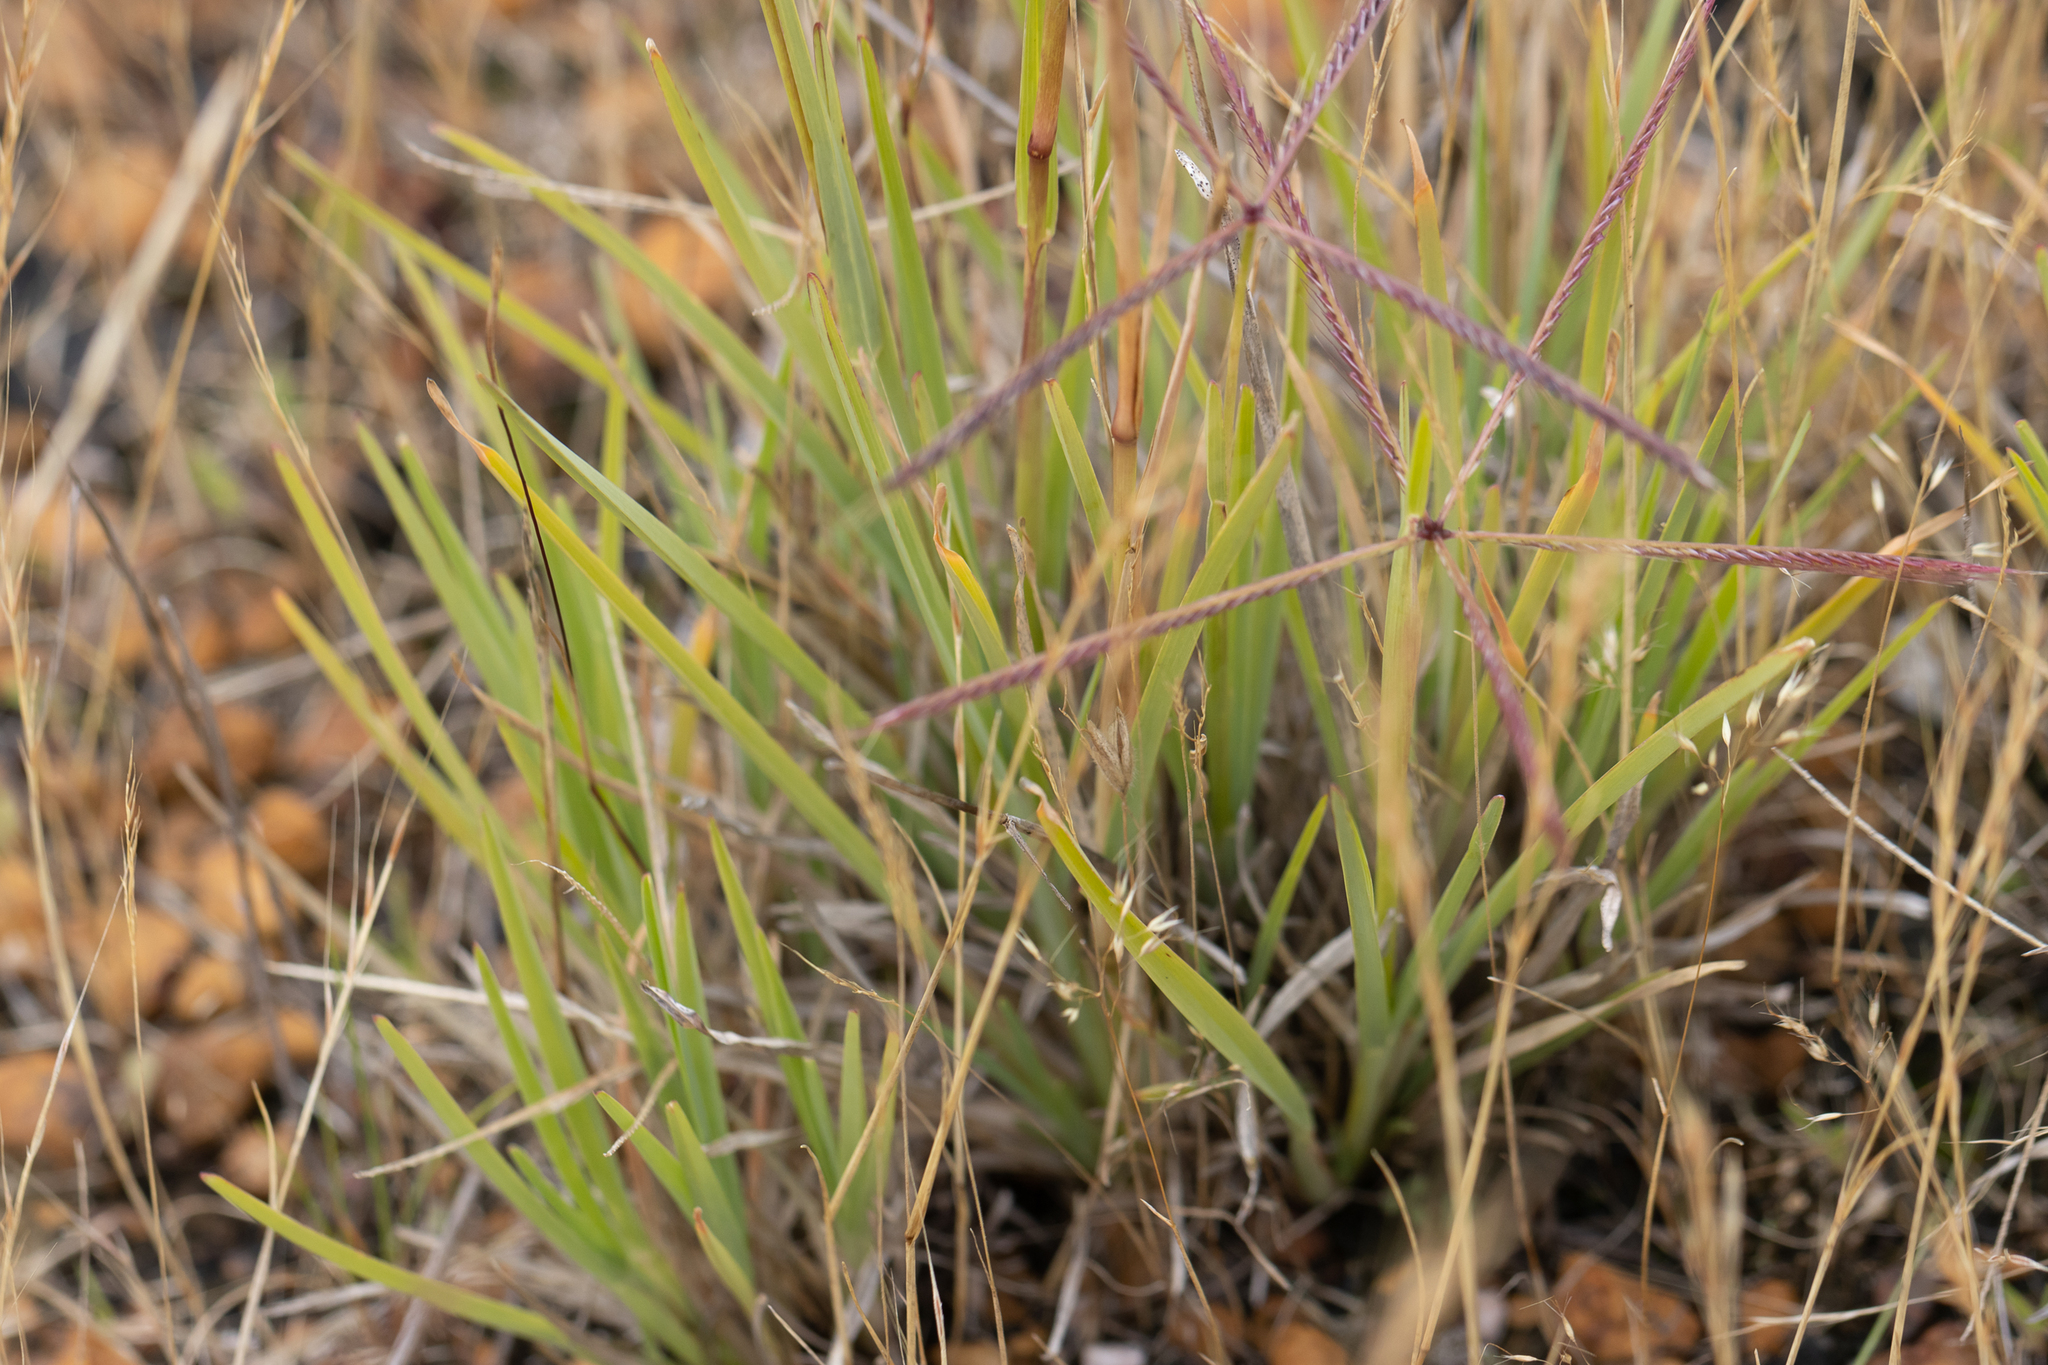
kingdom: Plantae
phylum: Tracheophyta
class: Liliopsida
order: Poales
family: Poaceae
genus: Chloris
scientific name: Chloris truncata
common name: Windmill-grass
